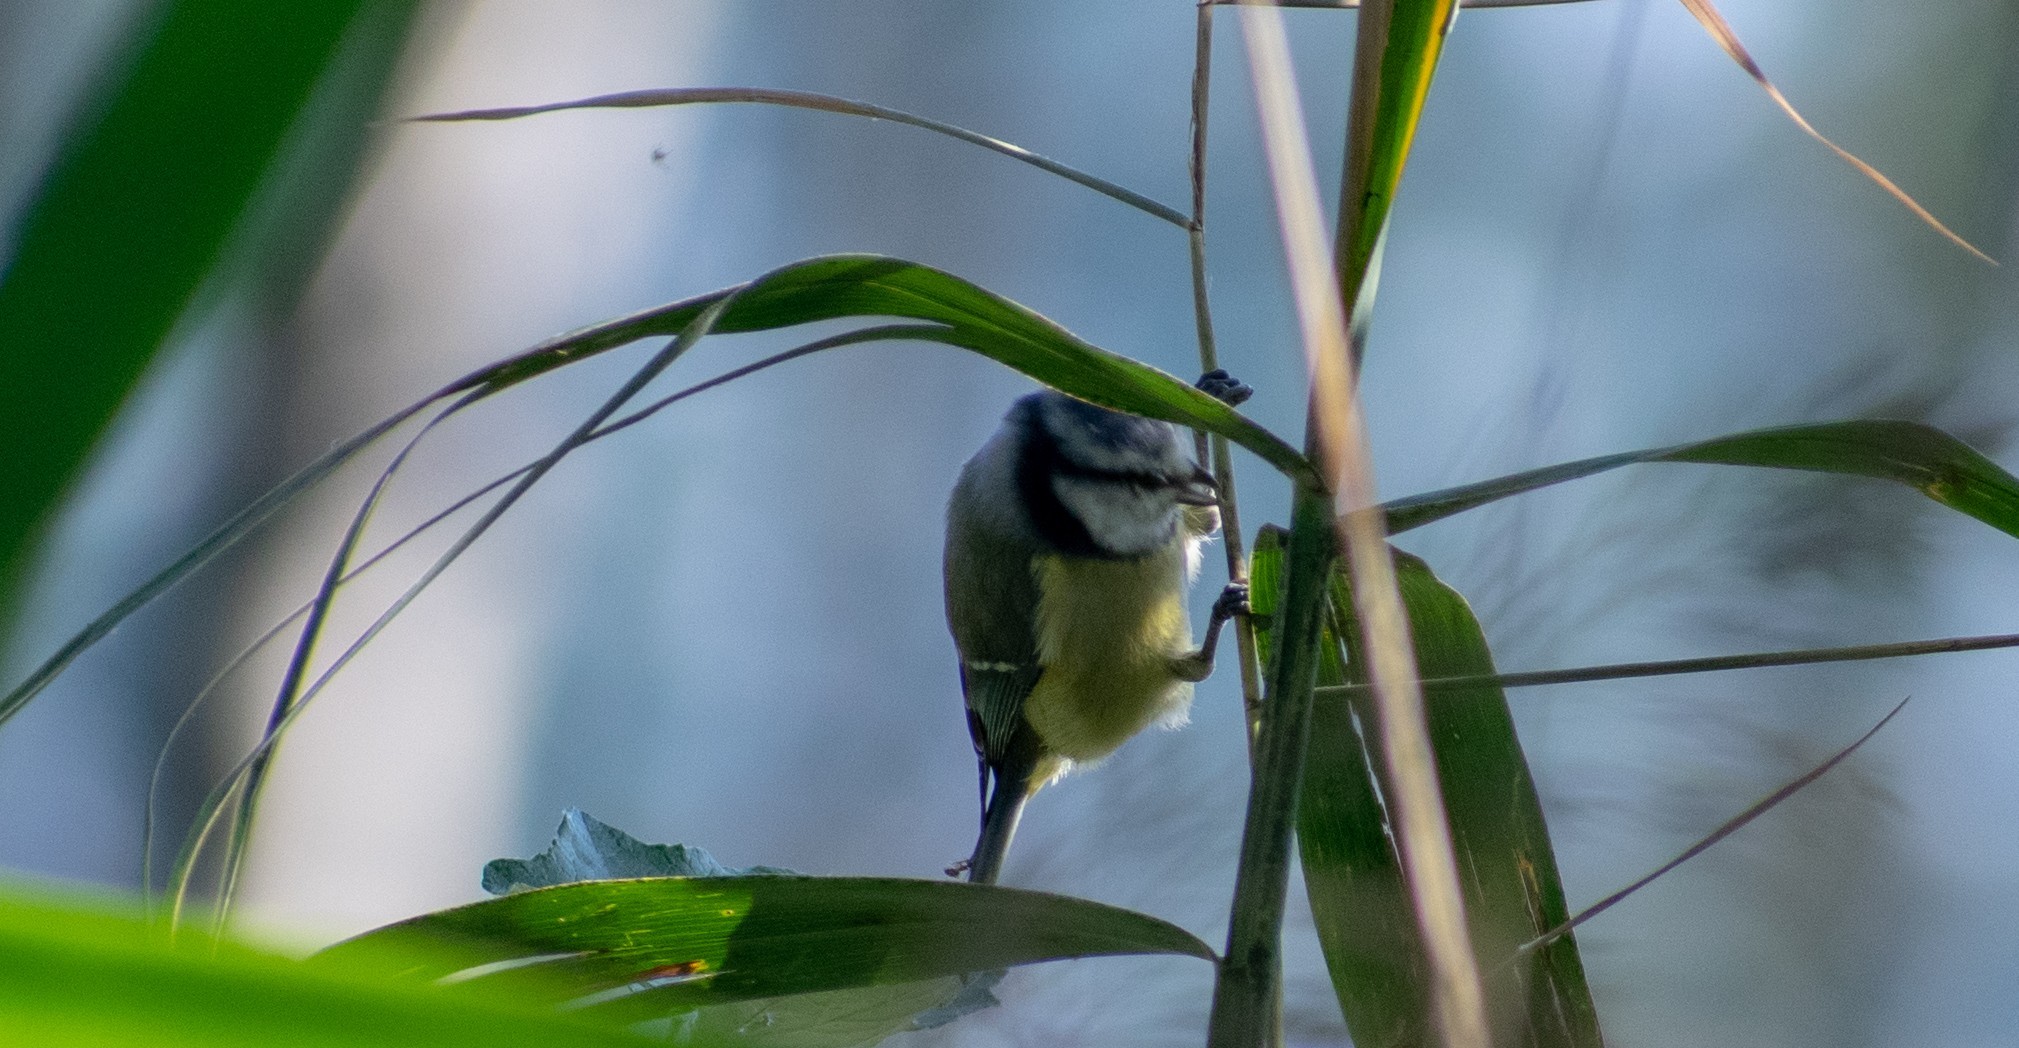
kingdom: Animalia
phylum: Chordata
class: Aves
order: Passeriformes
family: Paridae
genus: Cyanistes
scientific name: Cyanistes caeruleus
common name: Eurasian blue tit
